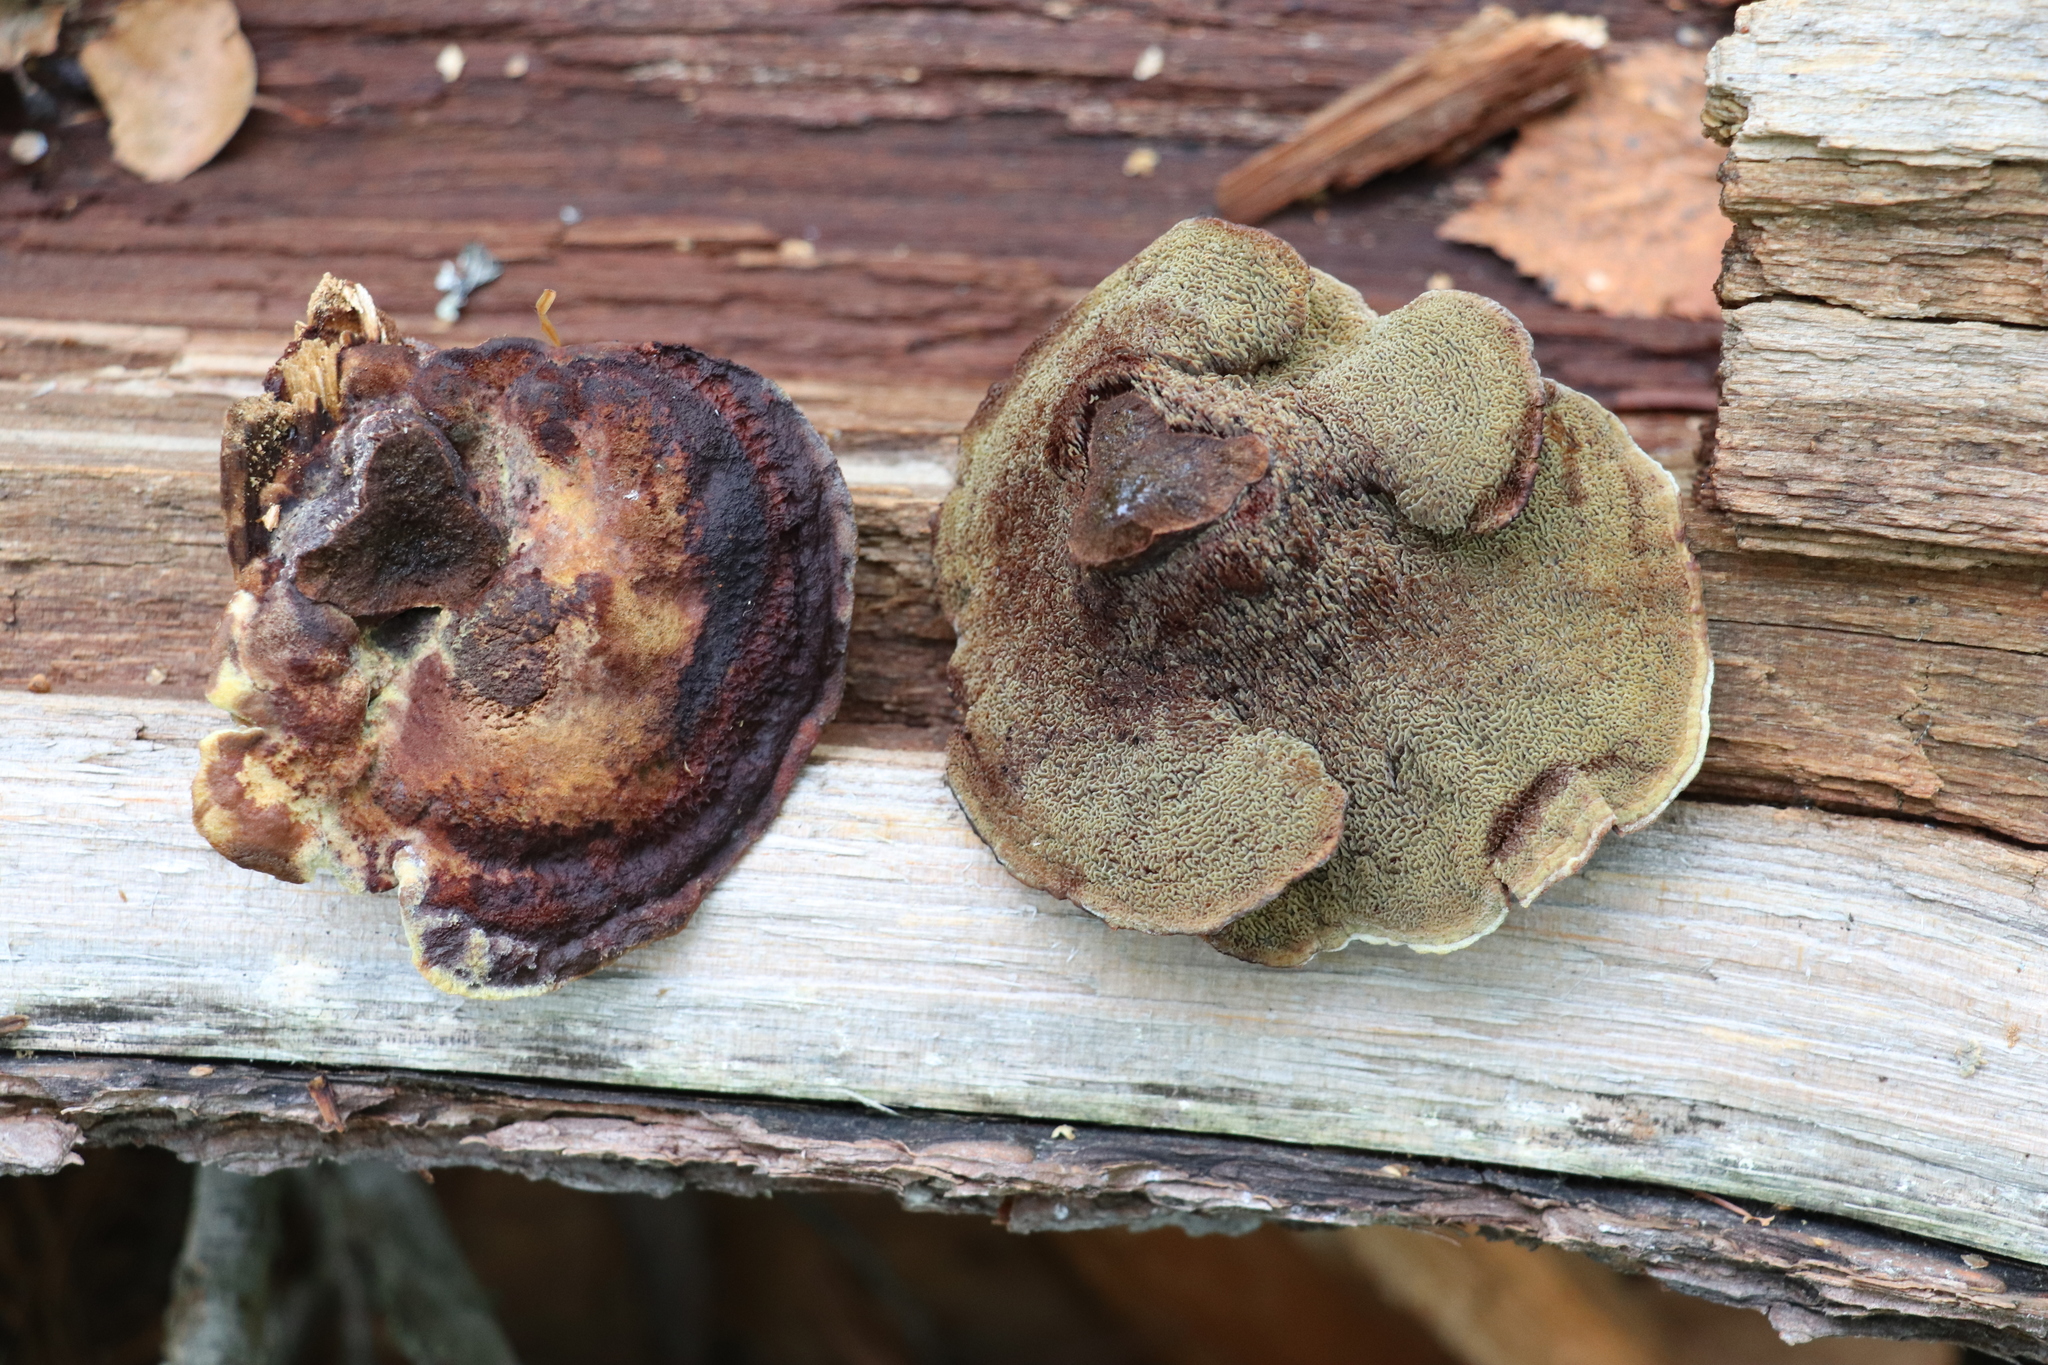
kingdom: Fungi
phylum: Basidiomycota
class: Agaricomycetes
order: Polyporales
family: Laetiporaceae
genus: Phaeolus
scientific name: Phaeolus schweinitzii
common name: Dyer's mazegill
